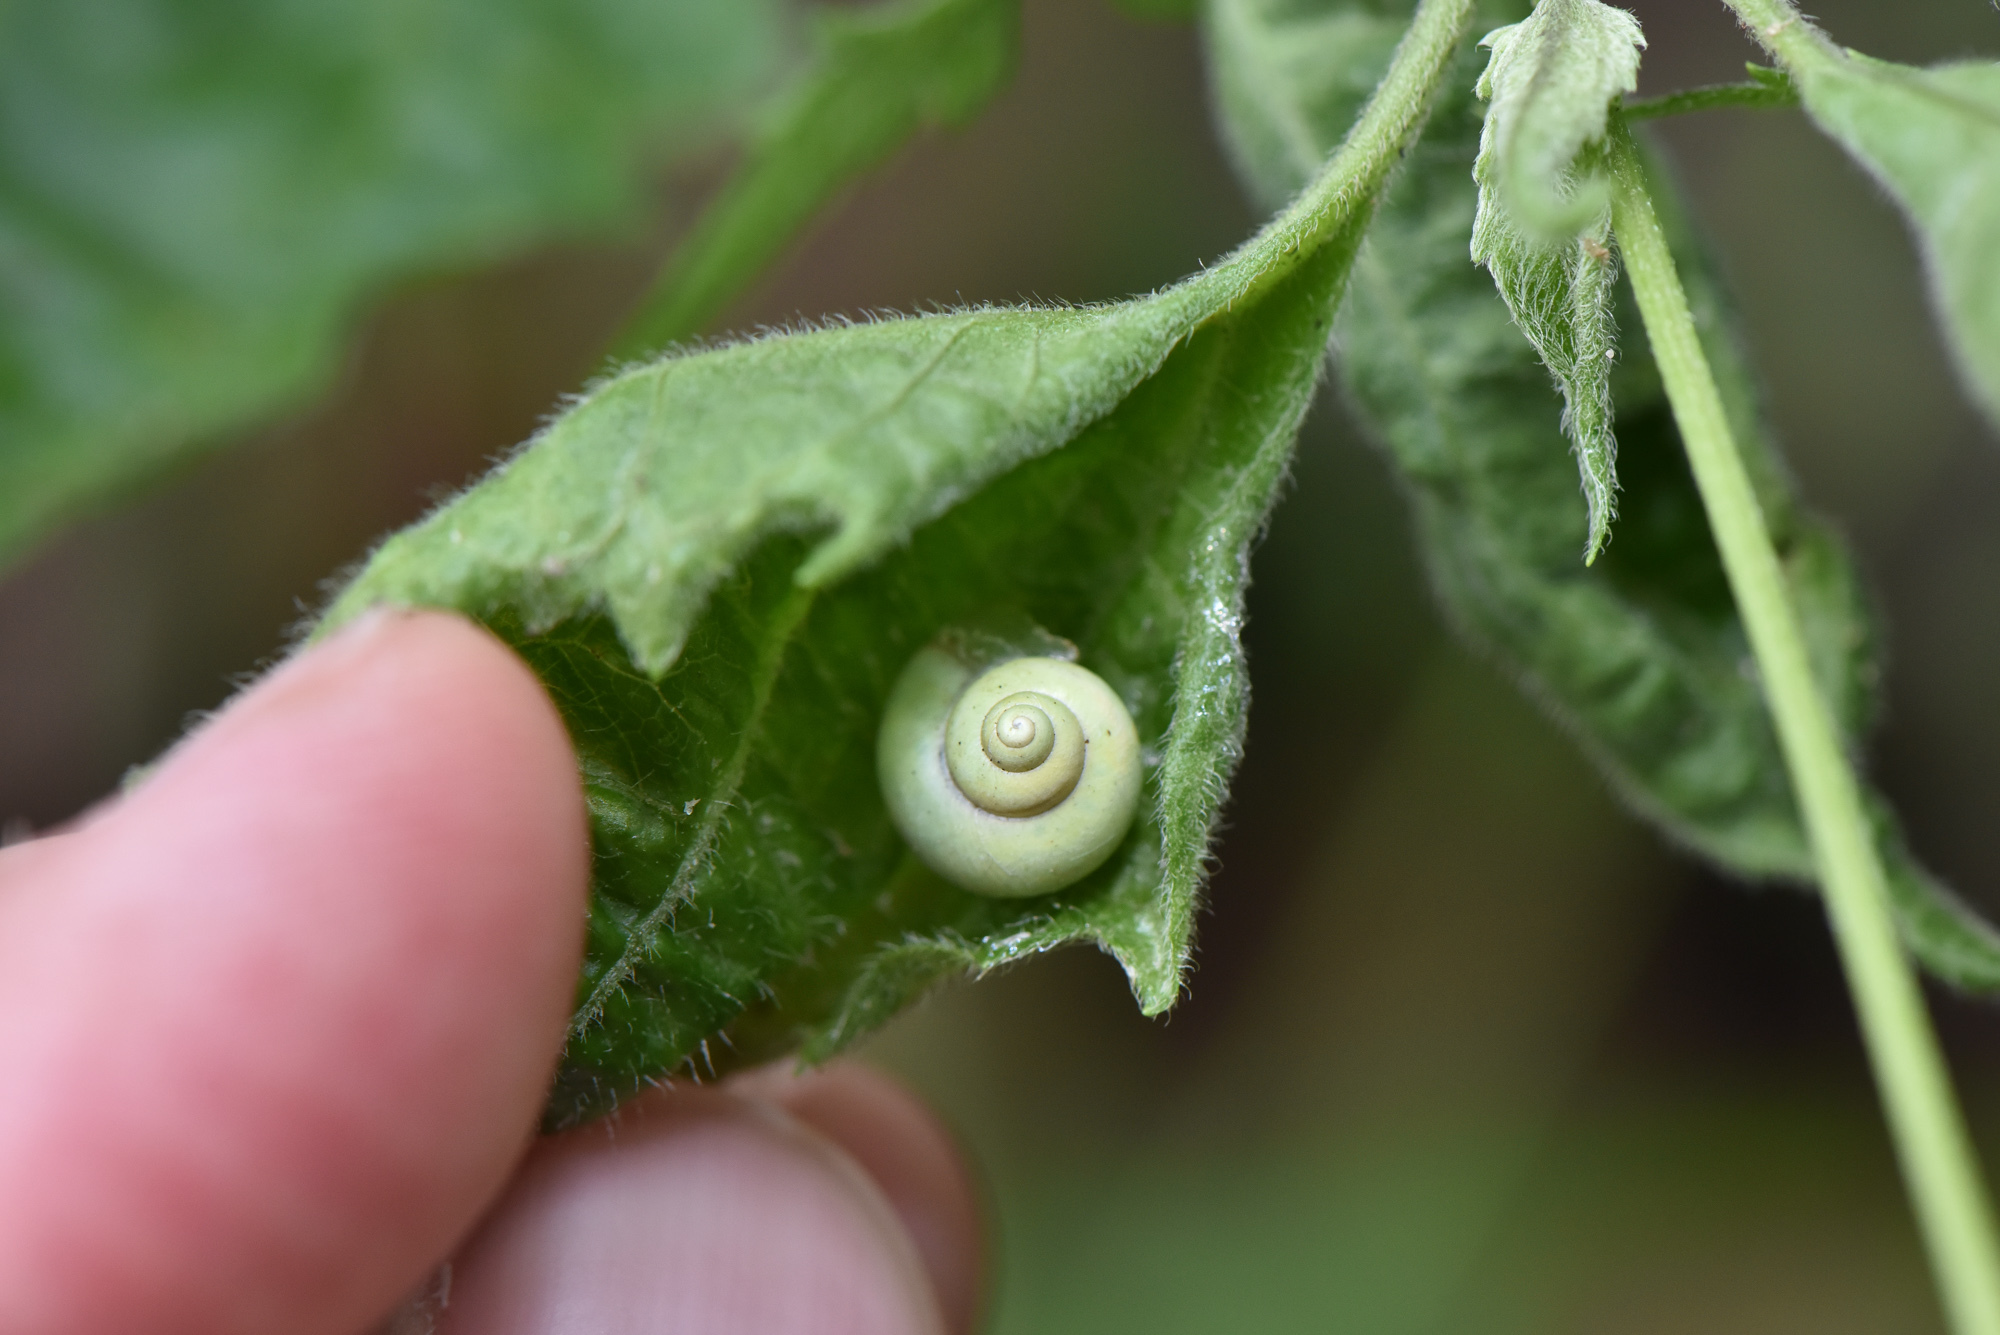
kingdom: Animalia
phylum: Mollusca
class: Gastropoda
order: Architaenioglossa
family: Cyclophoridae
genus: Leptopoma
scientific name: Leptopoma nitidum
